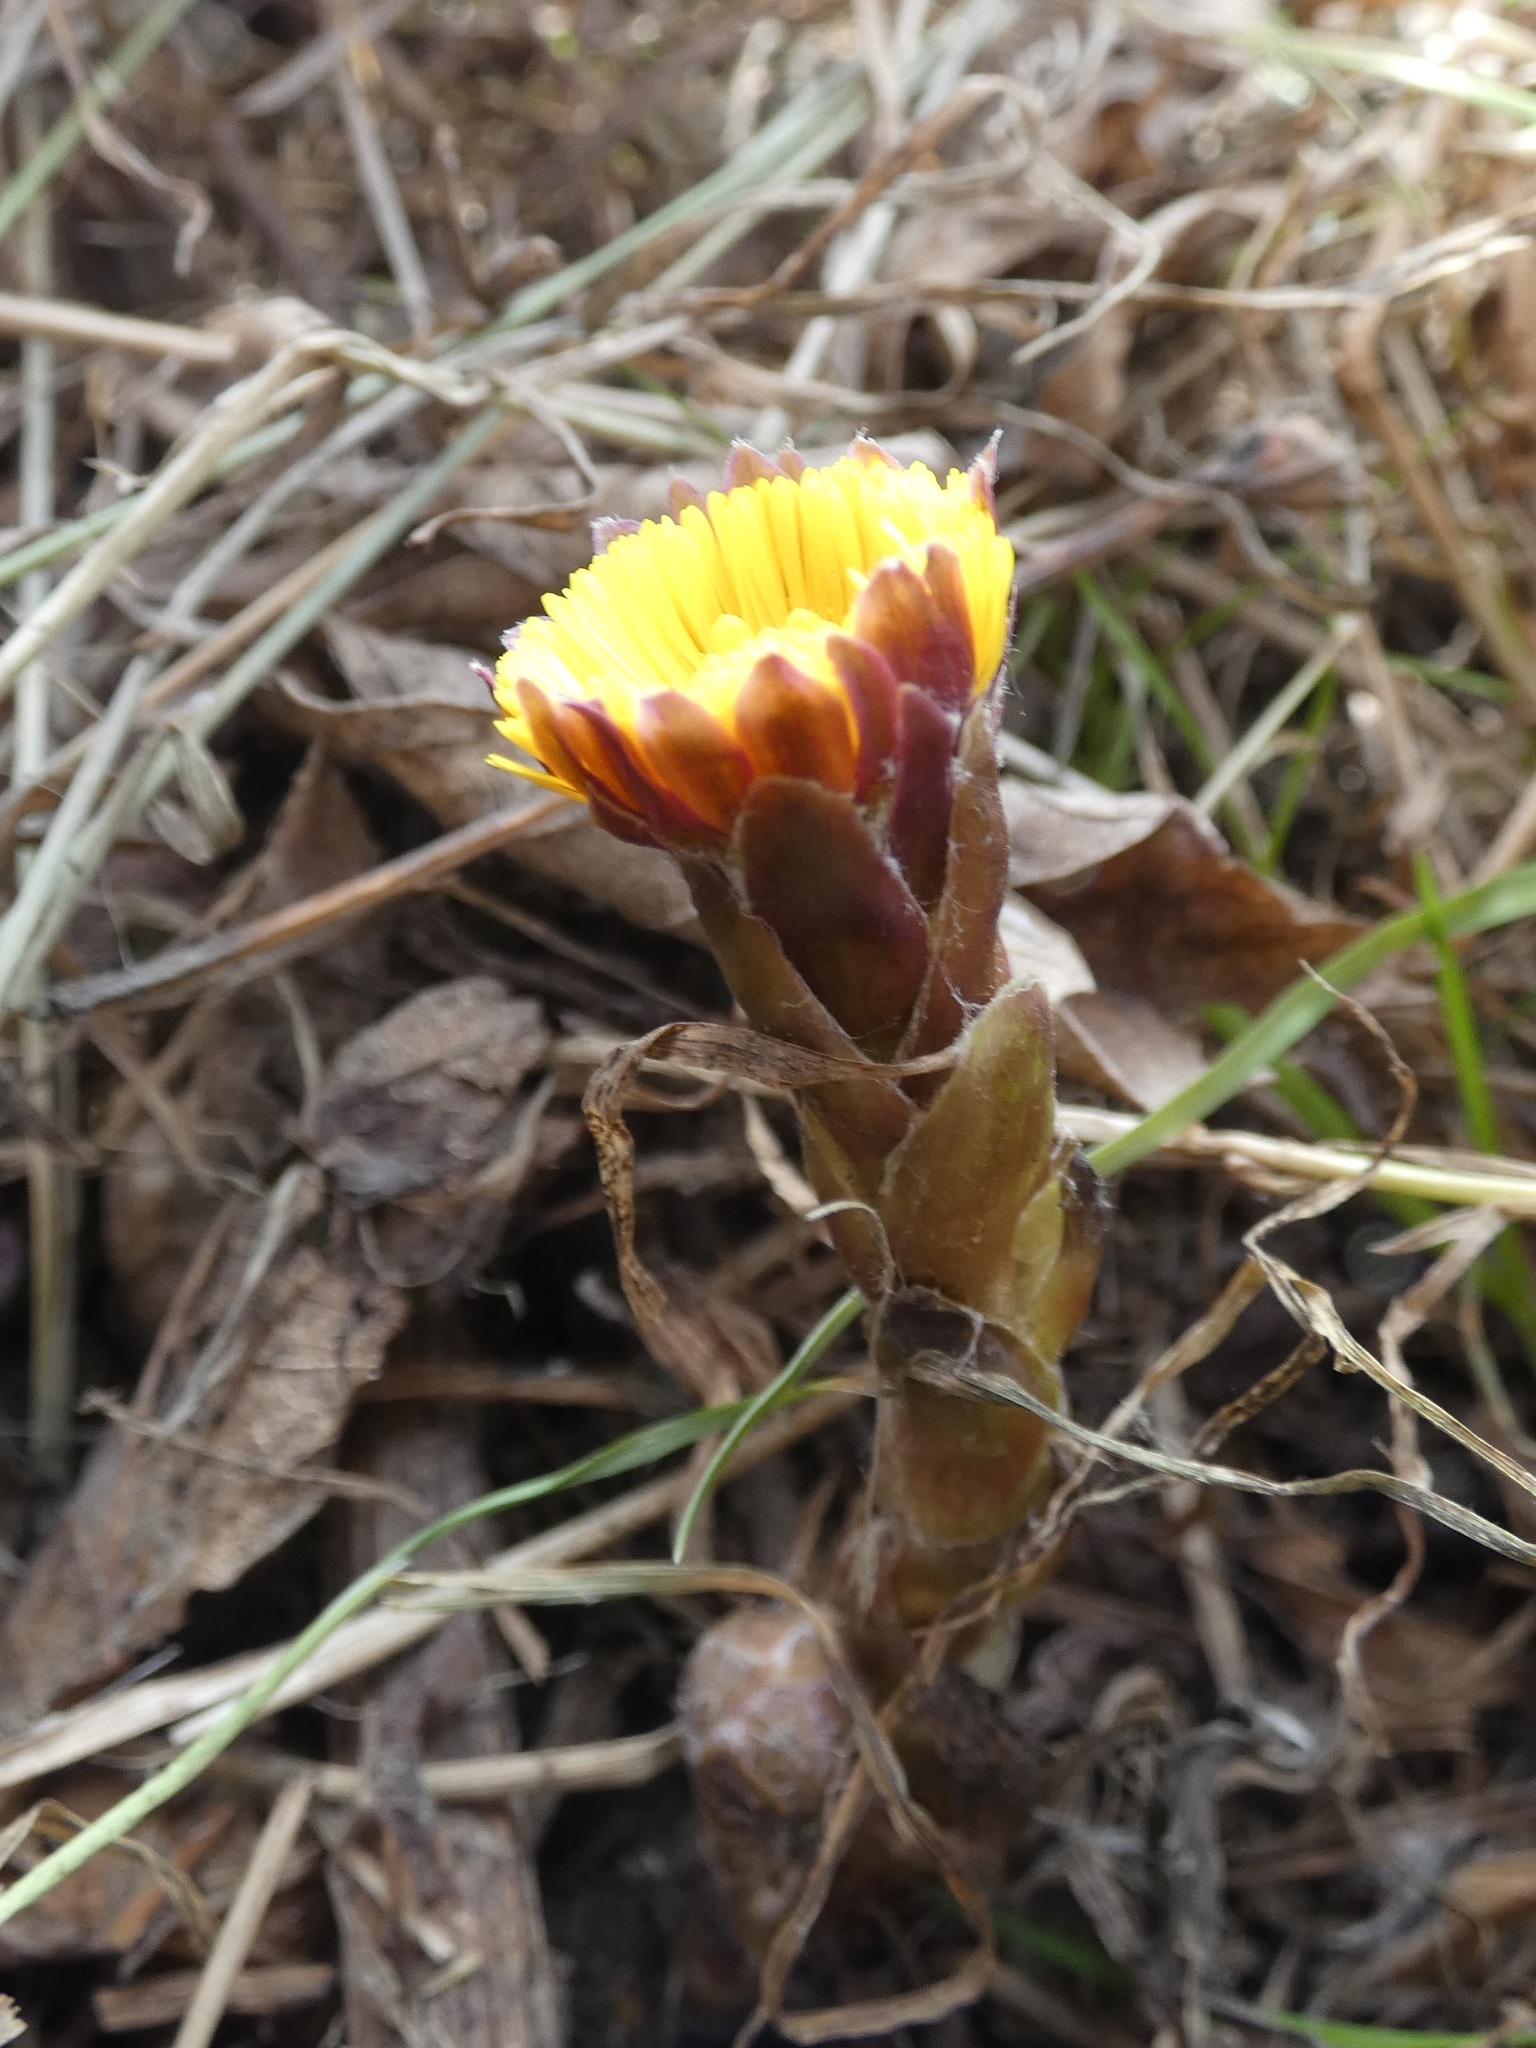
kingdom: Plantae
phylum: Tracheophyta
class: Magnoliopsida
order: Asterales
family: Asteraceae
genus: Tussilago
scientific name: Tussilago farfara
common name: Coltsfoot
